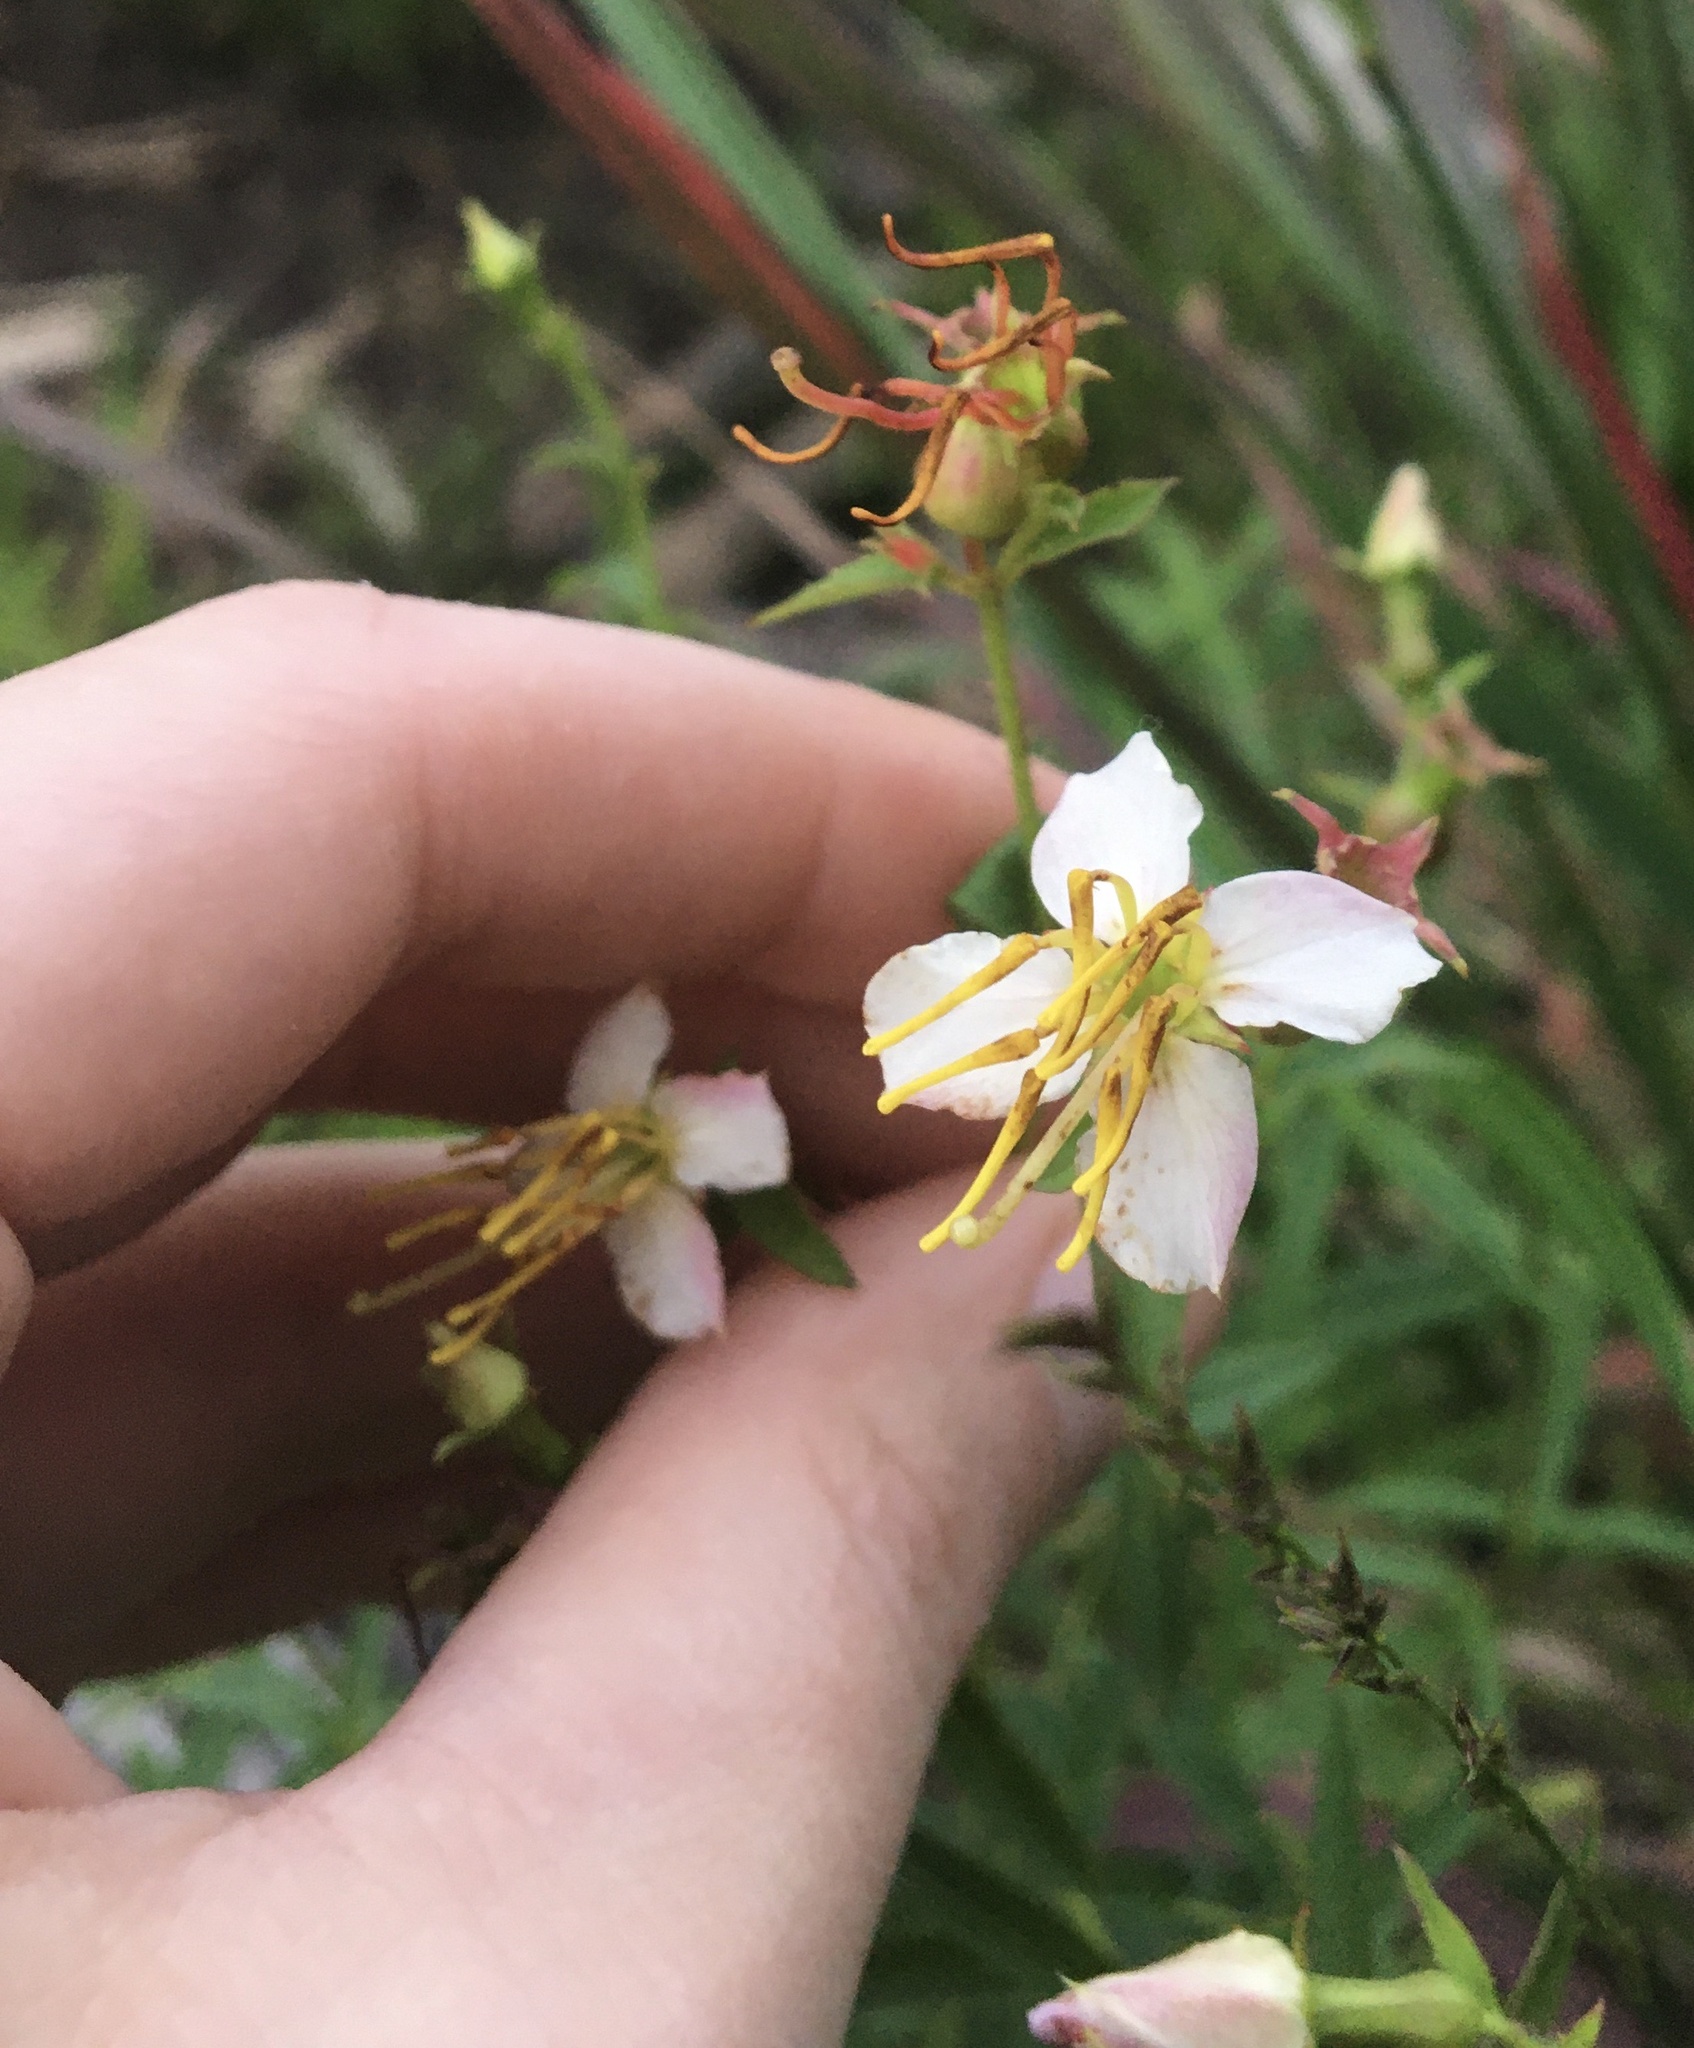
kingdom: Plantae
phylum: Tracheophyta
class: Magnoliopsida
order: Myrtales
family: Melastomataceae
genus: Rhexia
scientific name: Rhexia mariana
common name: Dull meadow-pitcher
